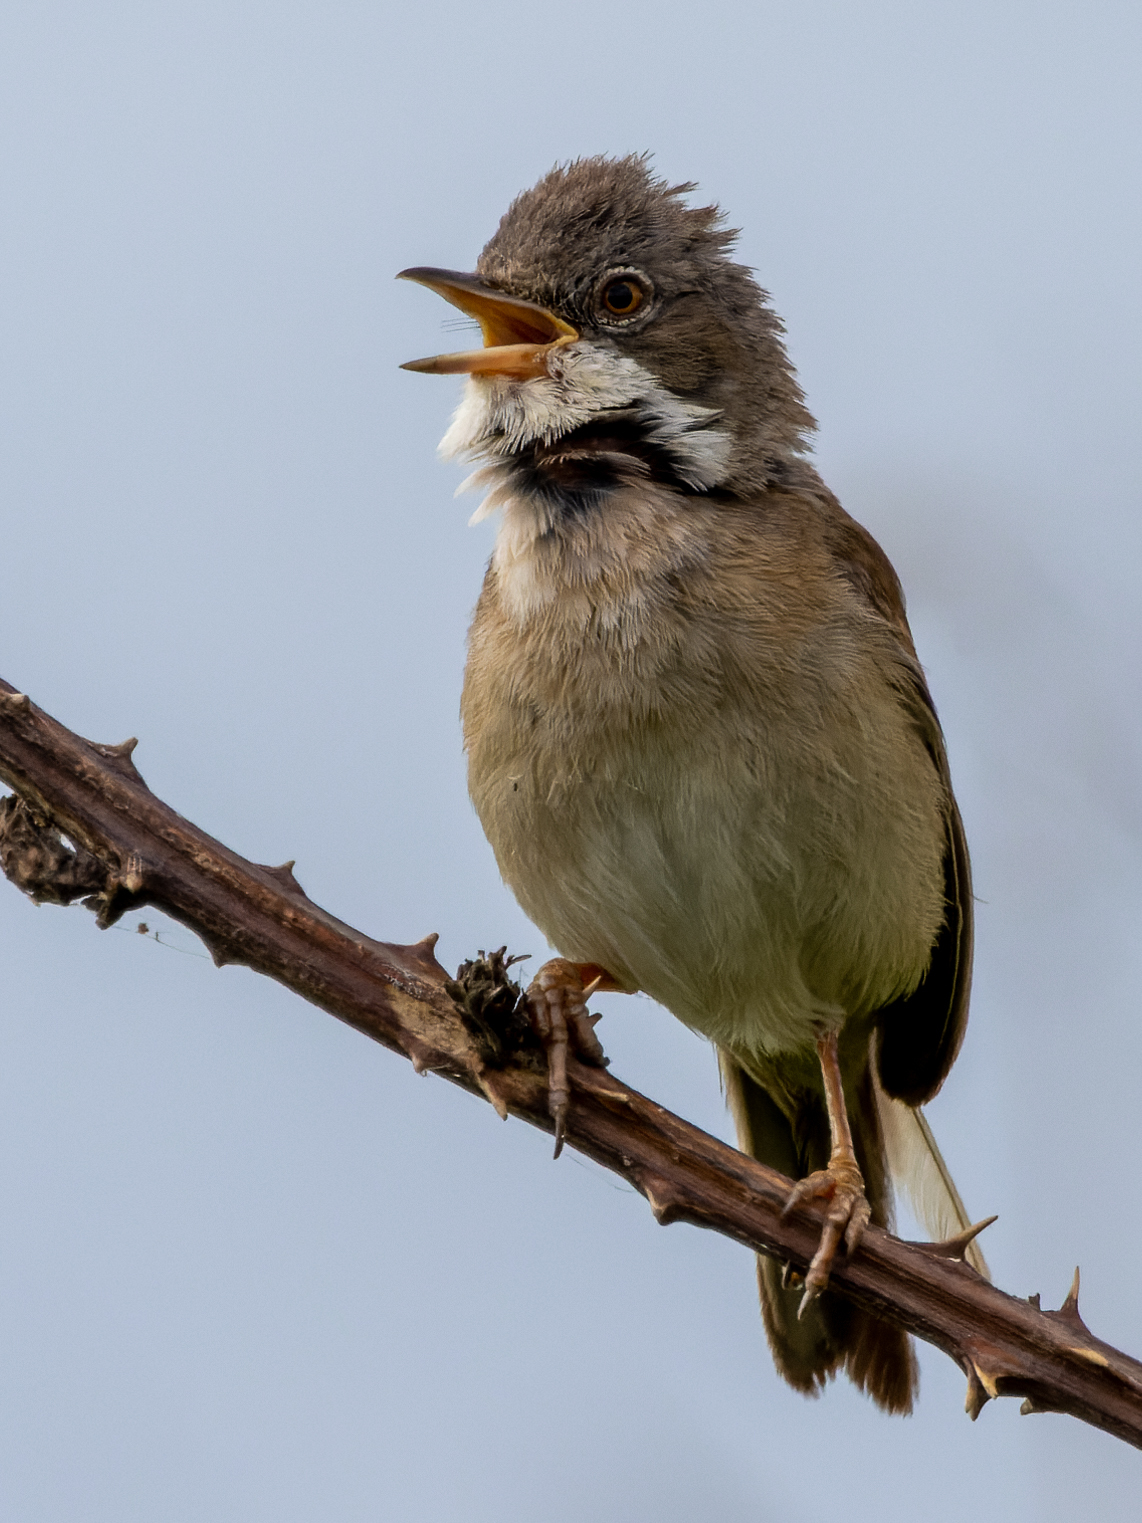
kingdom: Animalia
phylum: Chordata
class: Aves
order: Passeriformes
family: Sylviidae
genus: Sylvia
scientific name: Sylvia communis
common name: Common whitethroat
